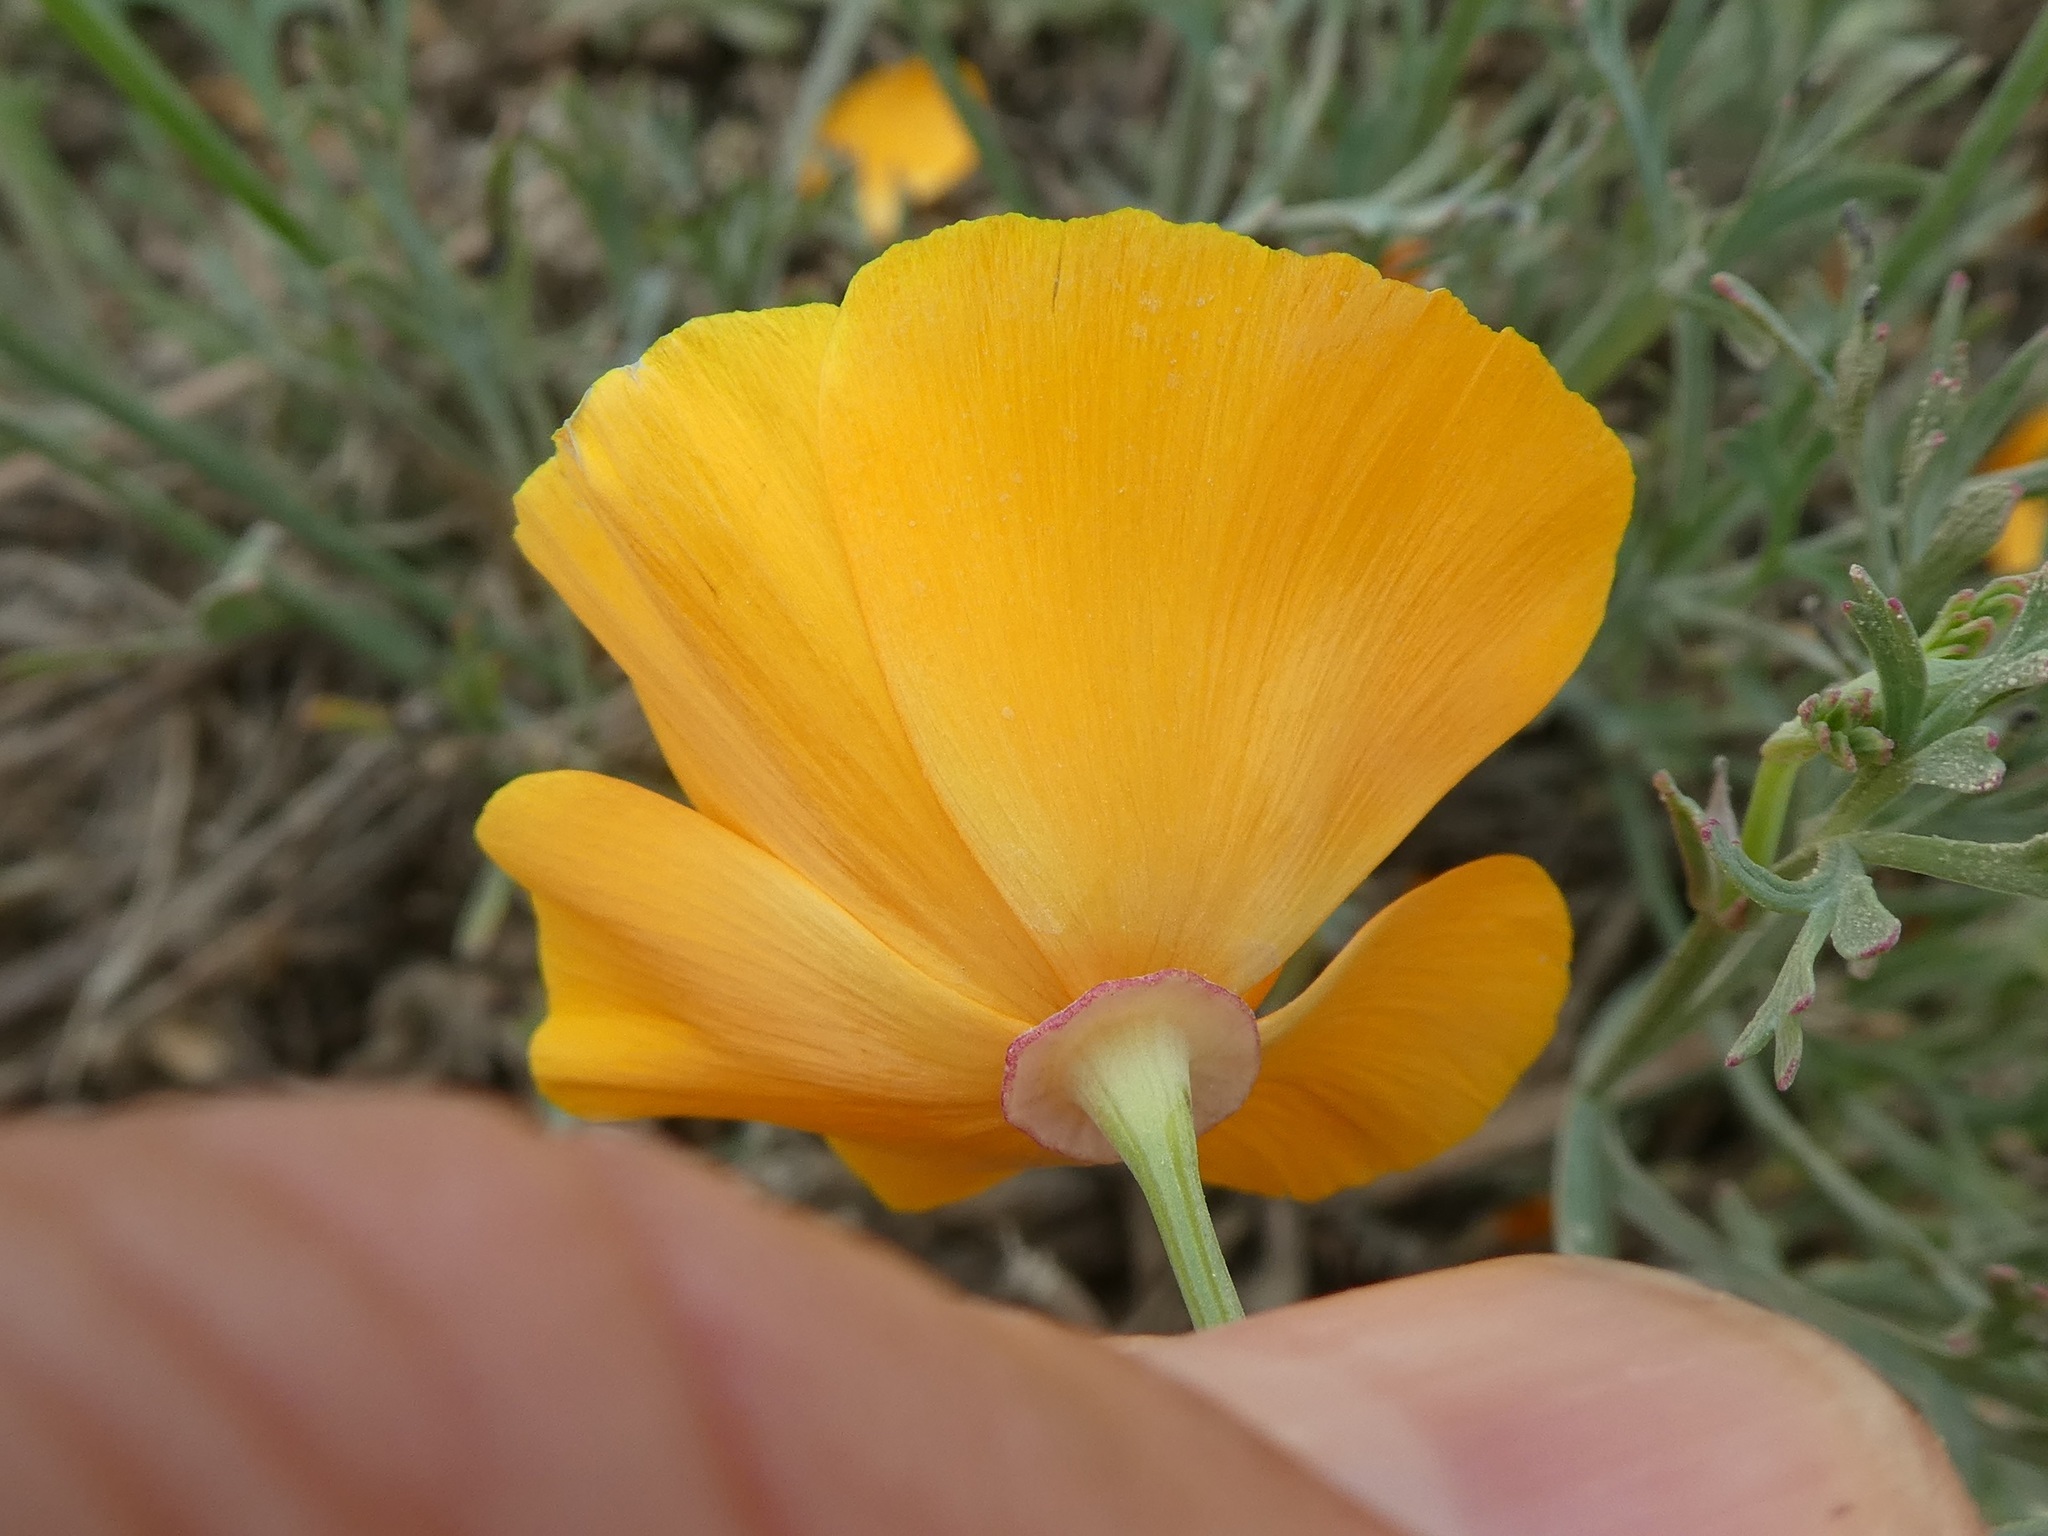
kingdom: Plantae
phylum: Tracheophyta
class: Magnoliopsida
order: Ranunculales
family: Papaveraceae
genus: Eschscholzia
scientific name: Eschscholzia californica
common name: California poppy
